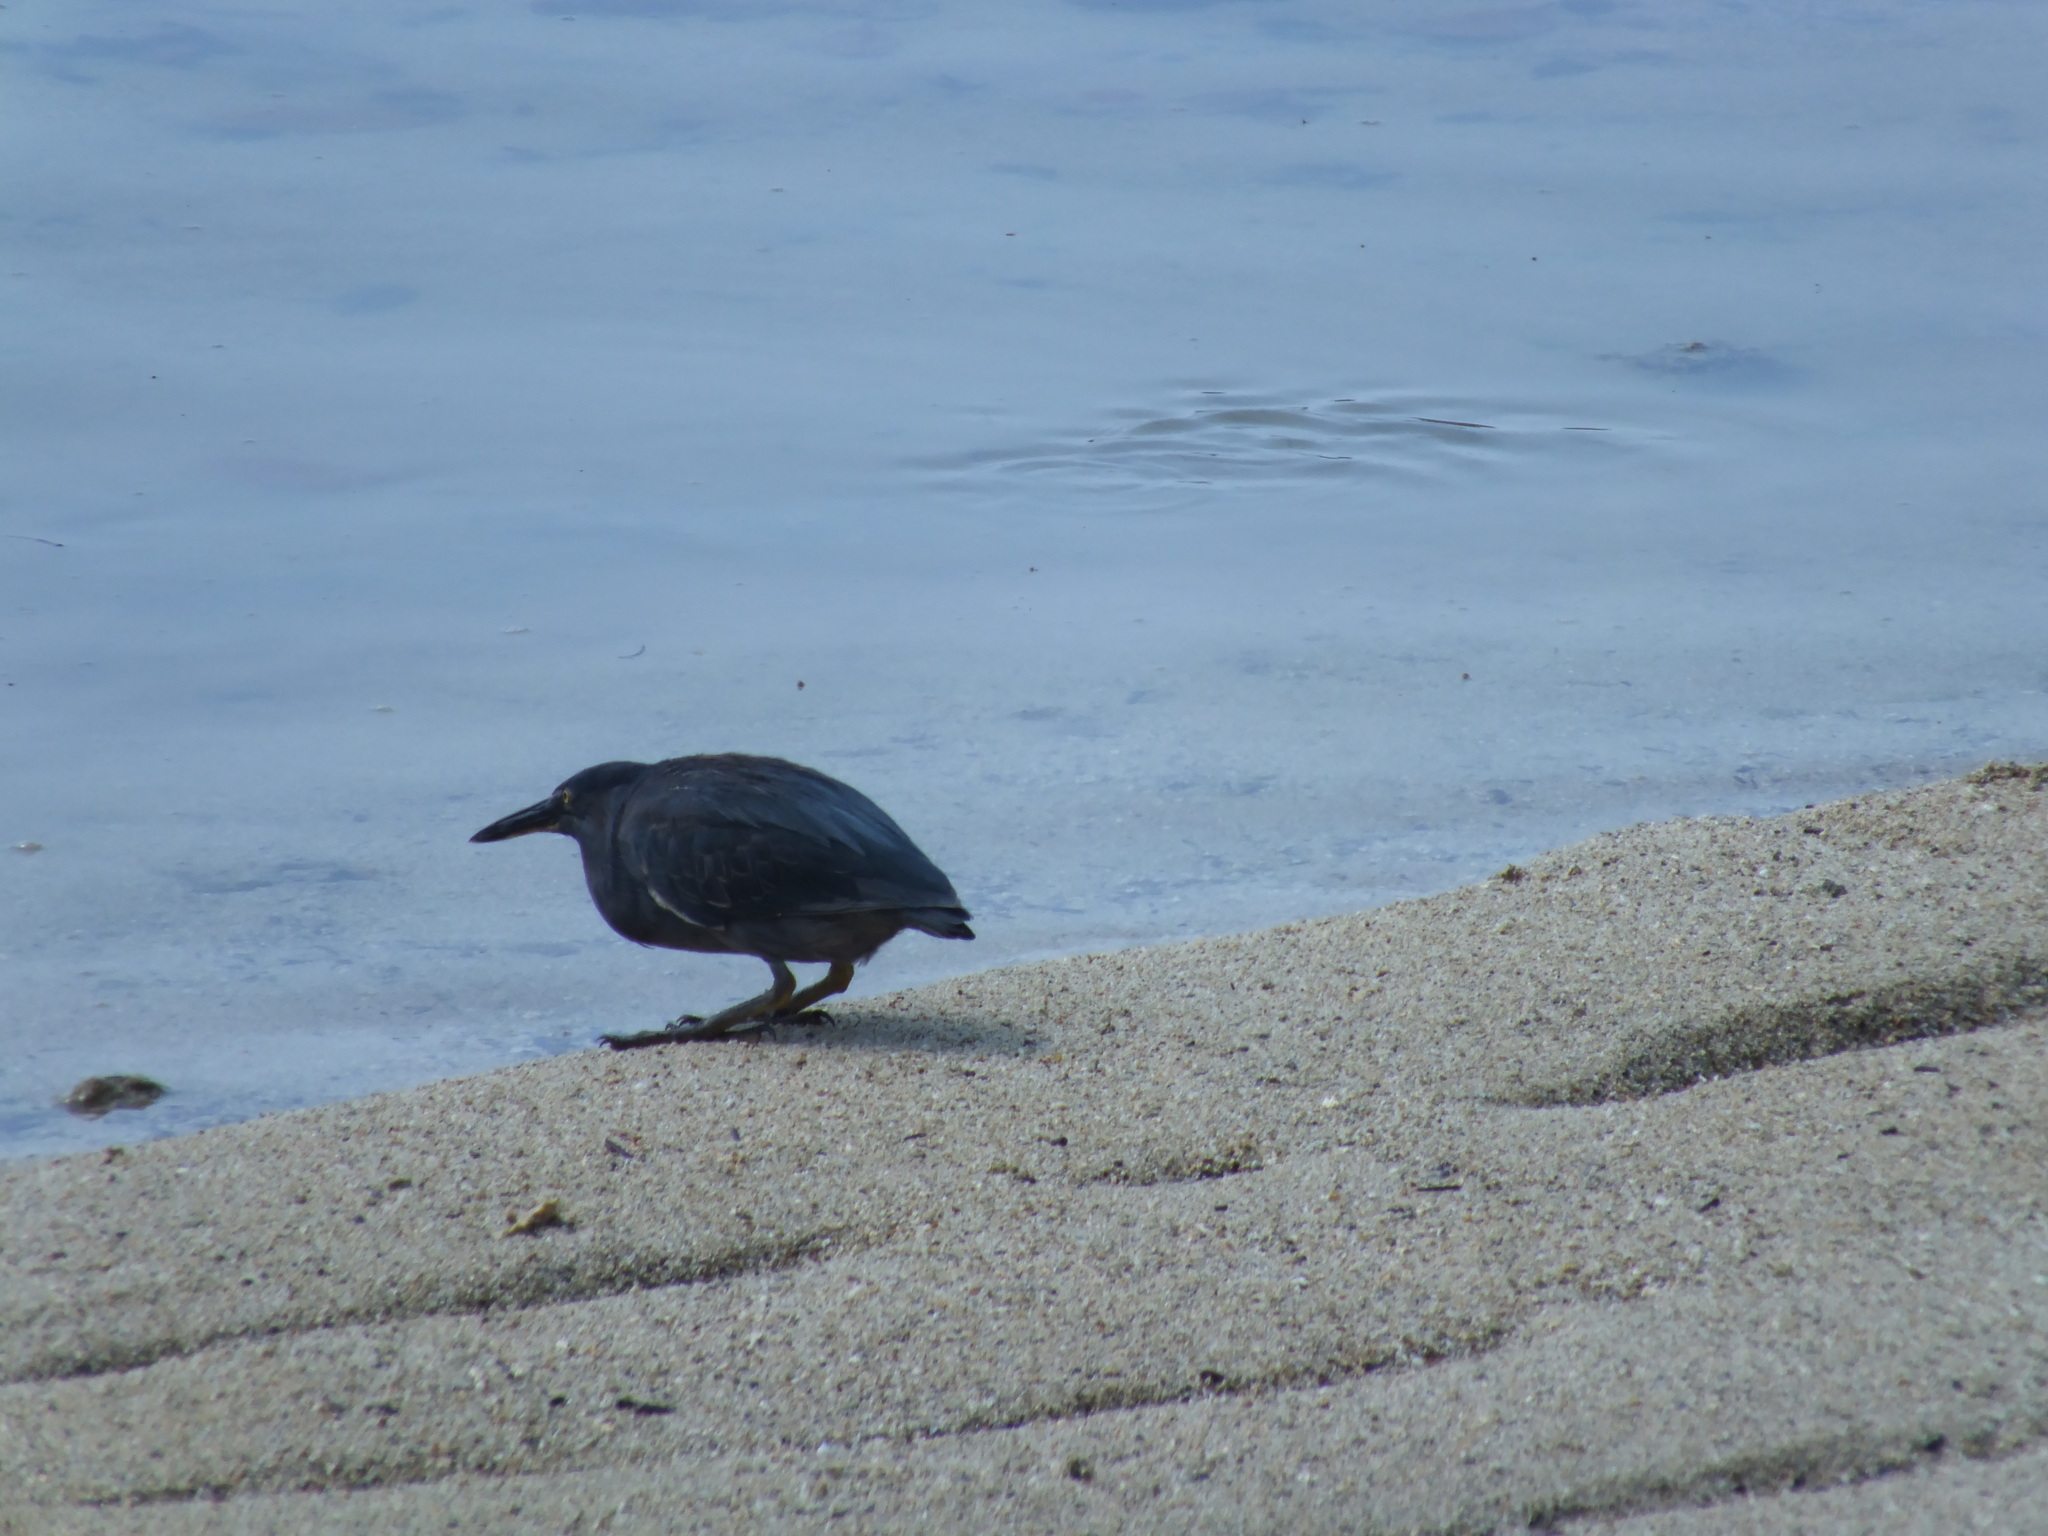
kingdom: Animalia
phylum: Chordata
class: Aves
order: Pelecaniformes
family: Ardeidae
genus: Butorides
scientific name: Butorides striata
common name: Striated heron
